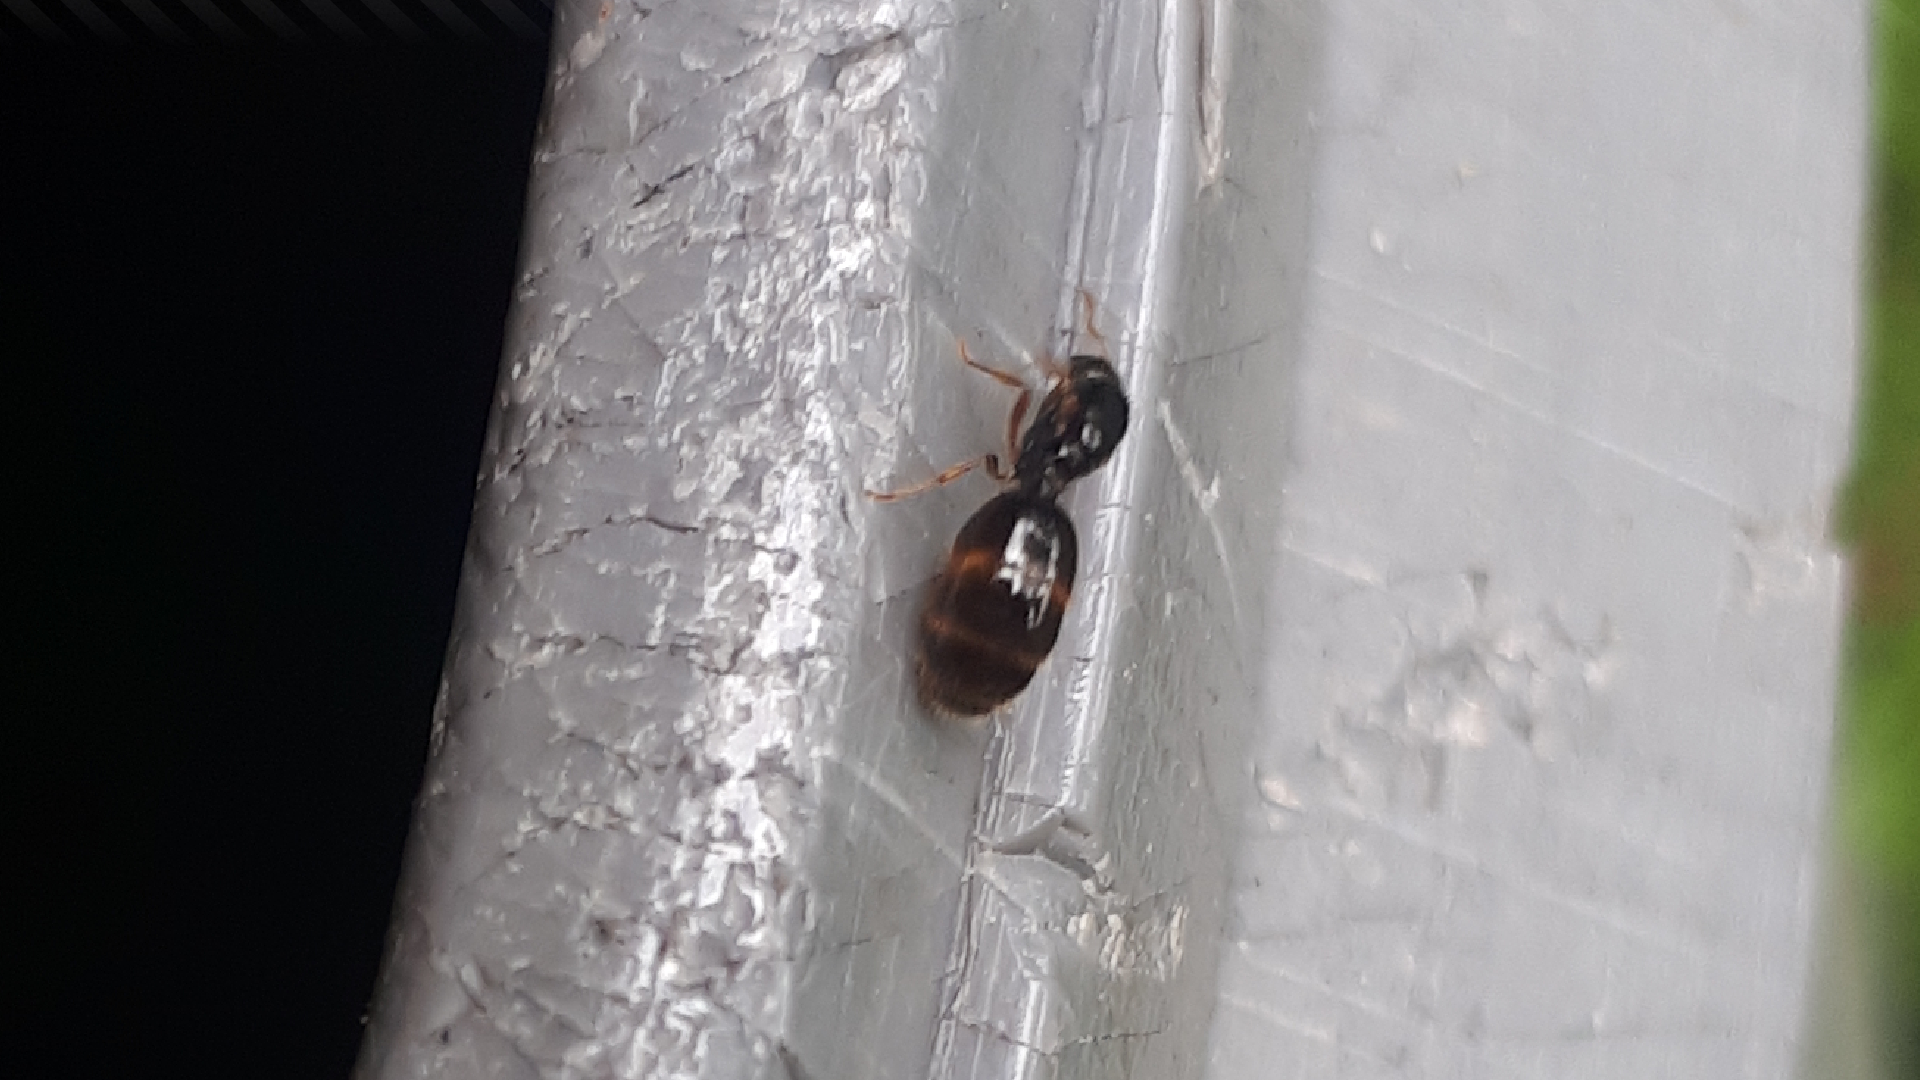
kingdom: Animalia
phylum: Arthropoda
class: Insecta
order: Hymenoptera
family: Formicidae
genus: Solenopsis
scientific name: Solenopsis fugax
